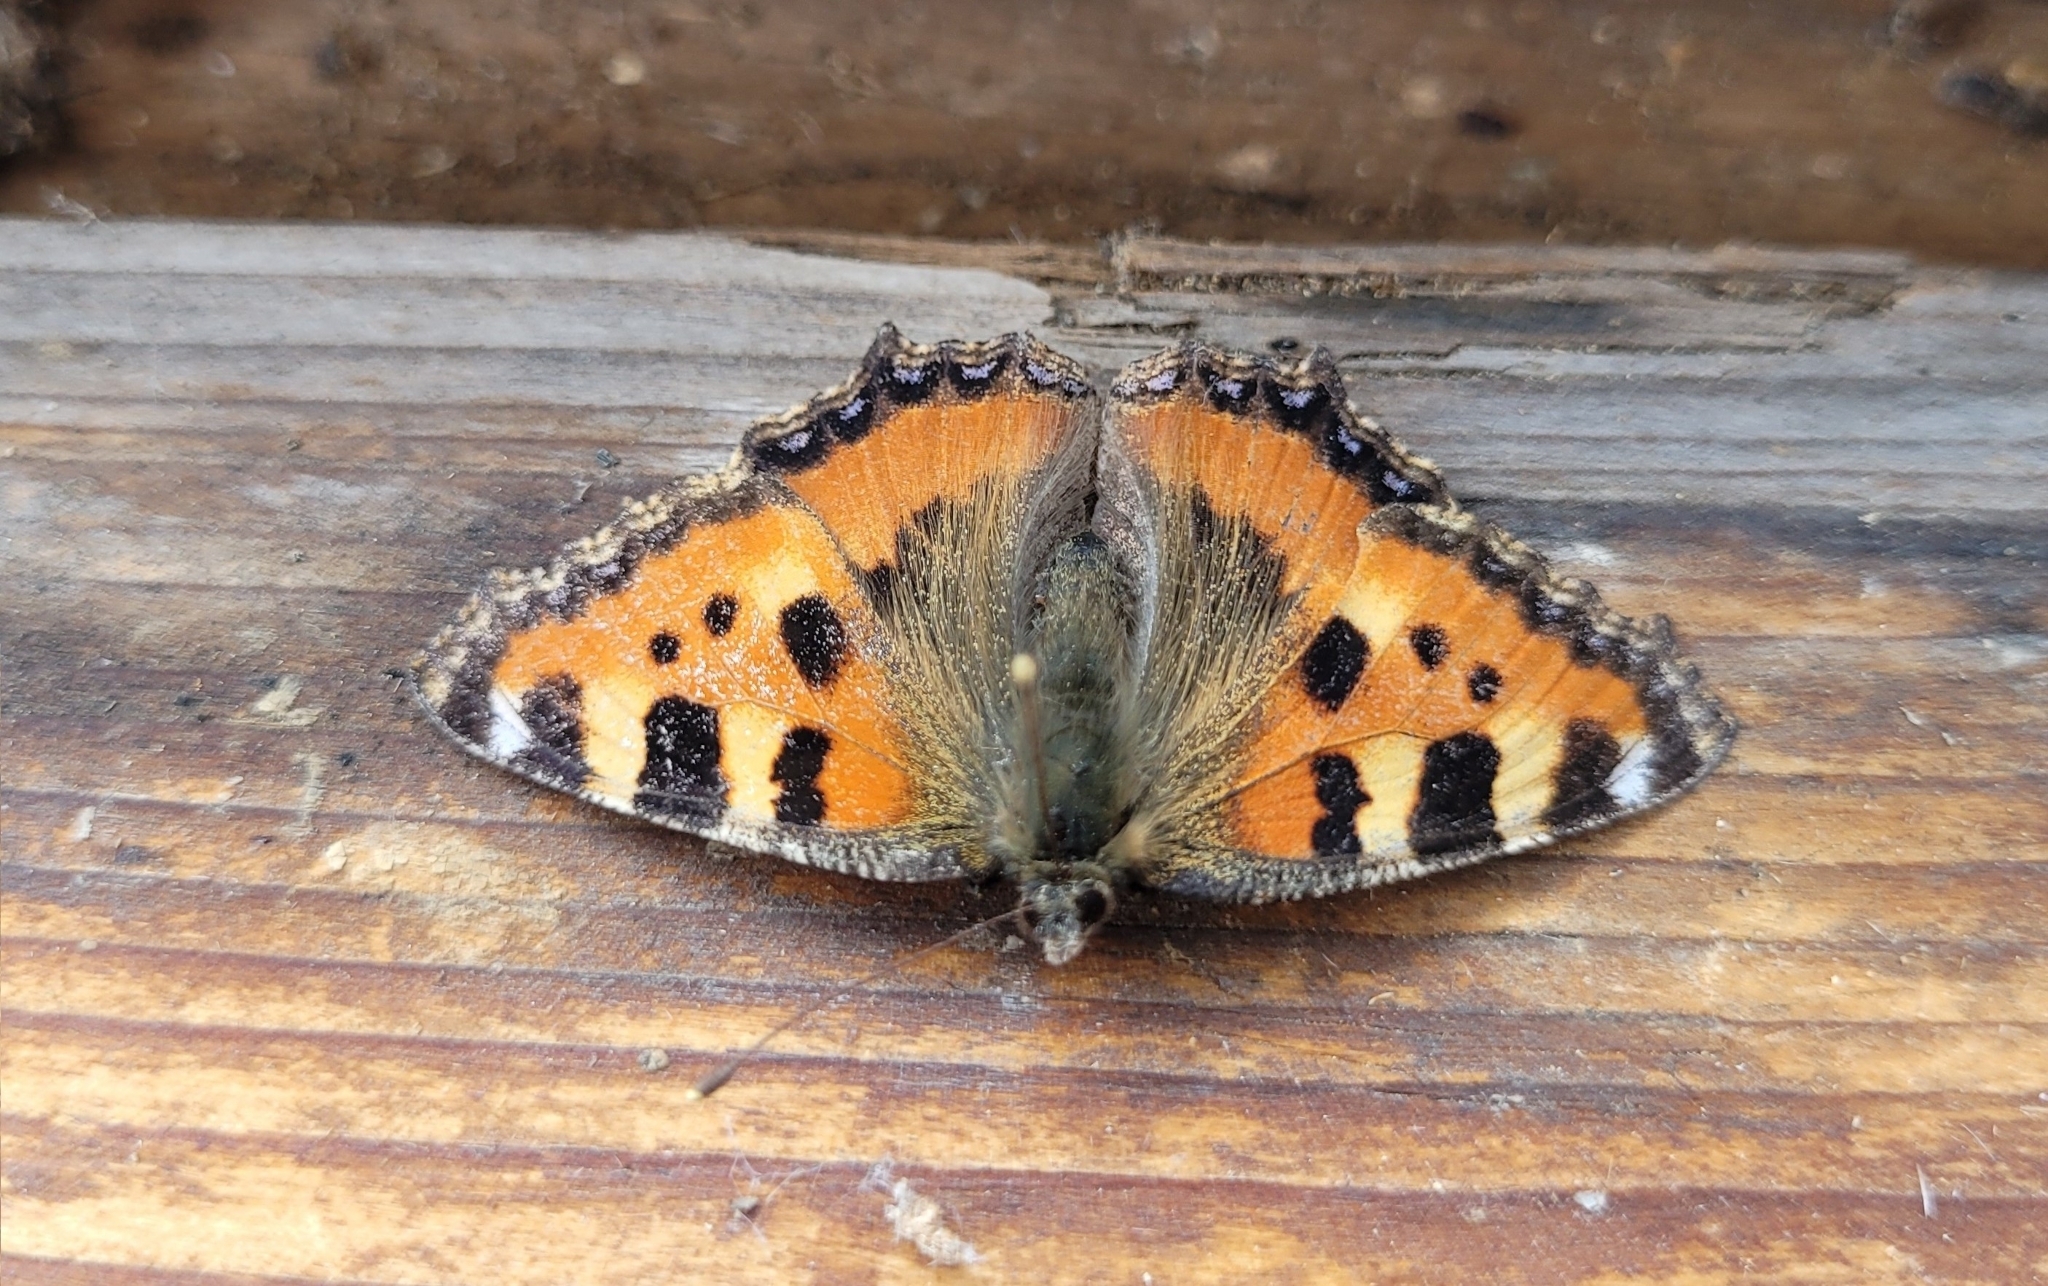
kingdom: Animalia
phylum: Arthropoda
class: Insecta
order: Lepidoptera
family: Nymphalidae
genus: Aglais
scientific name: Aglais urticae
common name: Small tortoiseshell
